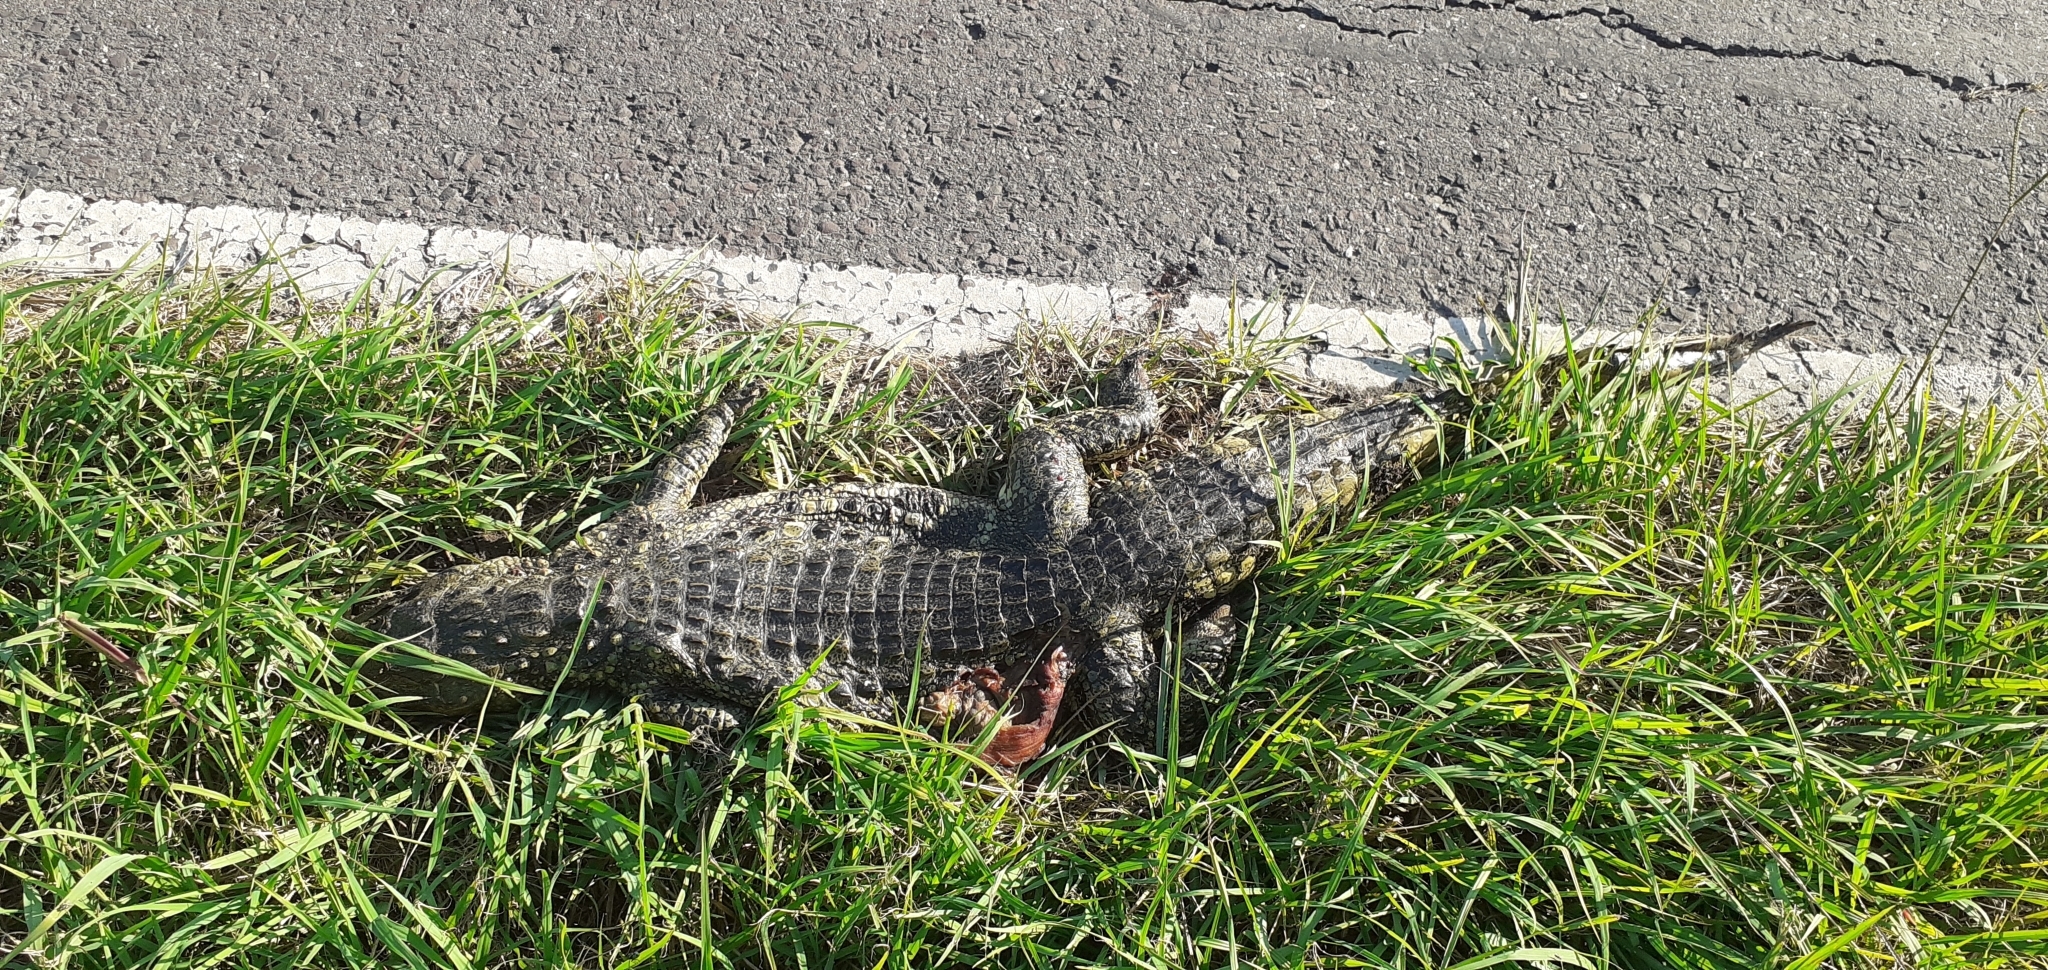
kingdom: Animalia
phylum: Chordata
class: Crocodylia
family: Alligatoridae
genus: Caiman
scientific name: Caiman latirostris
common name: Broad-snouted caiman
